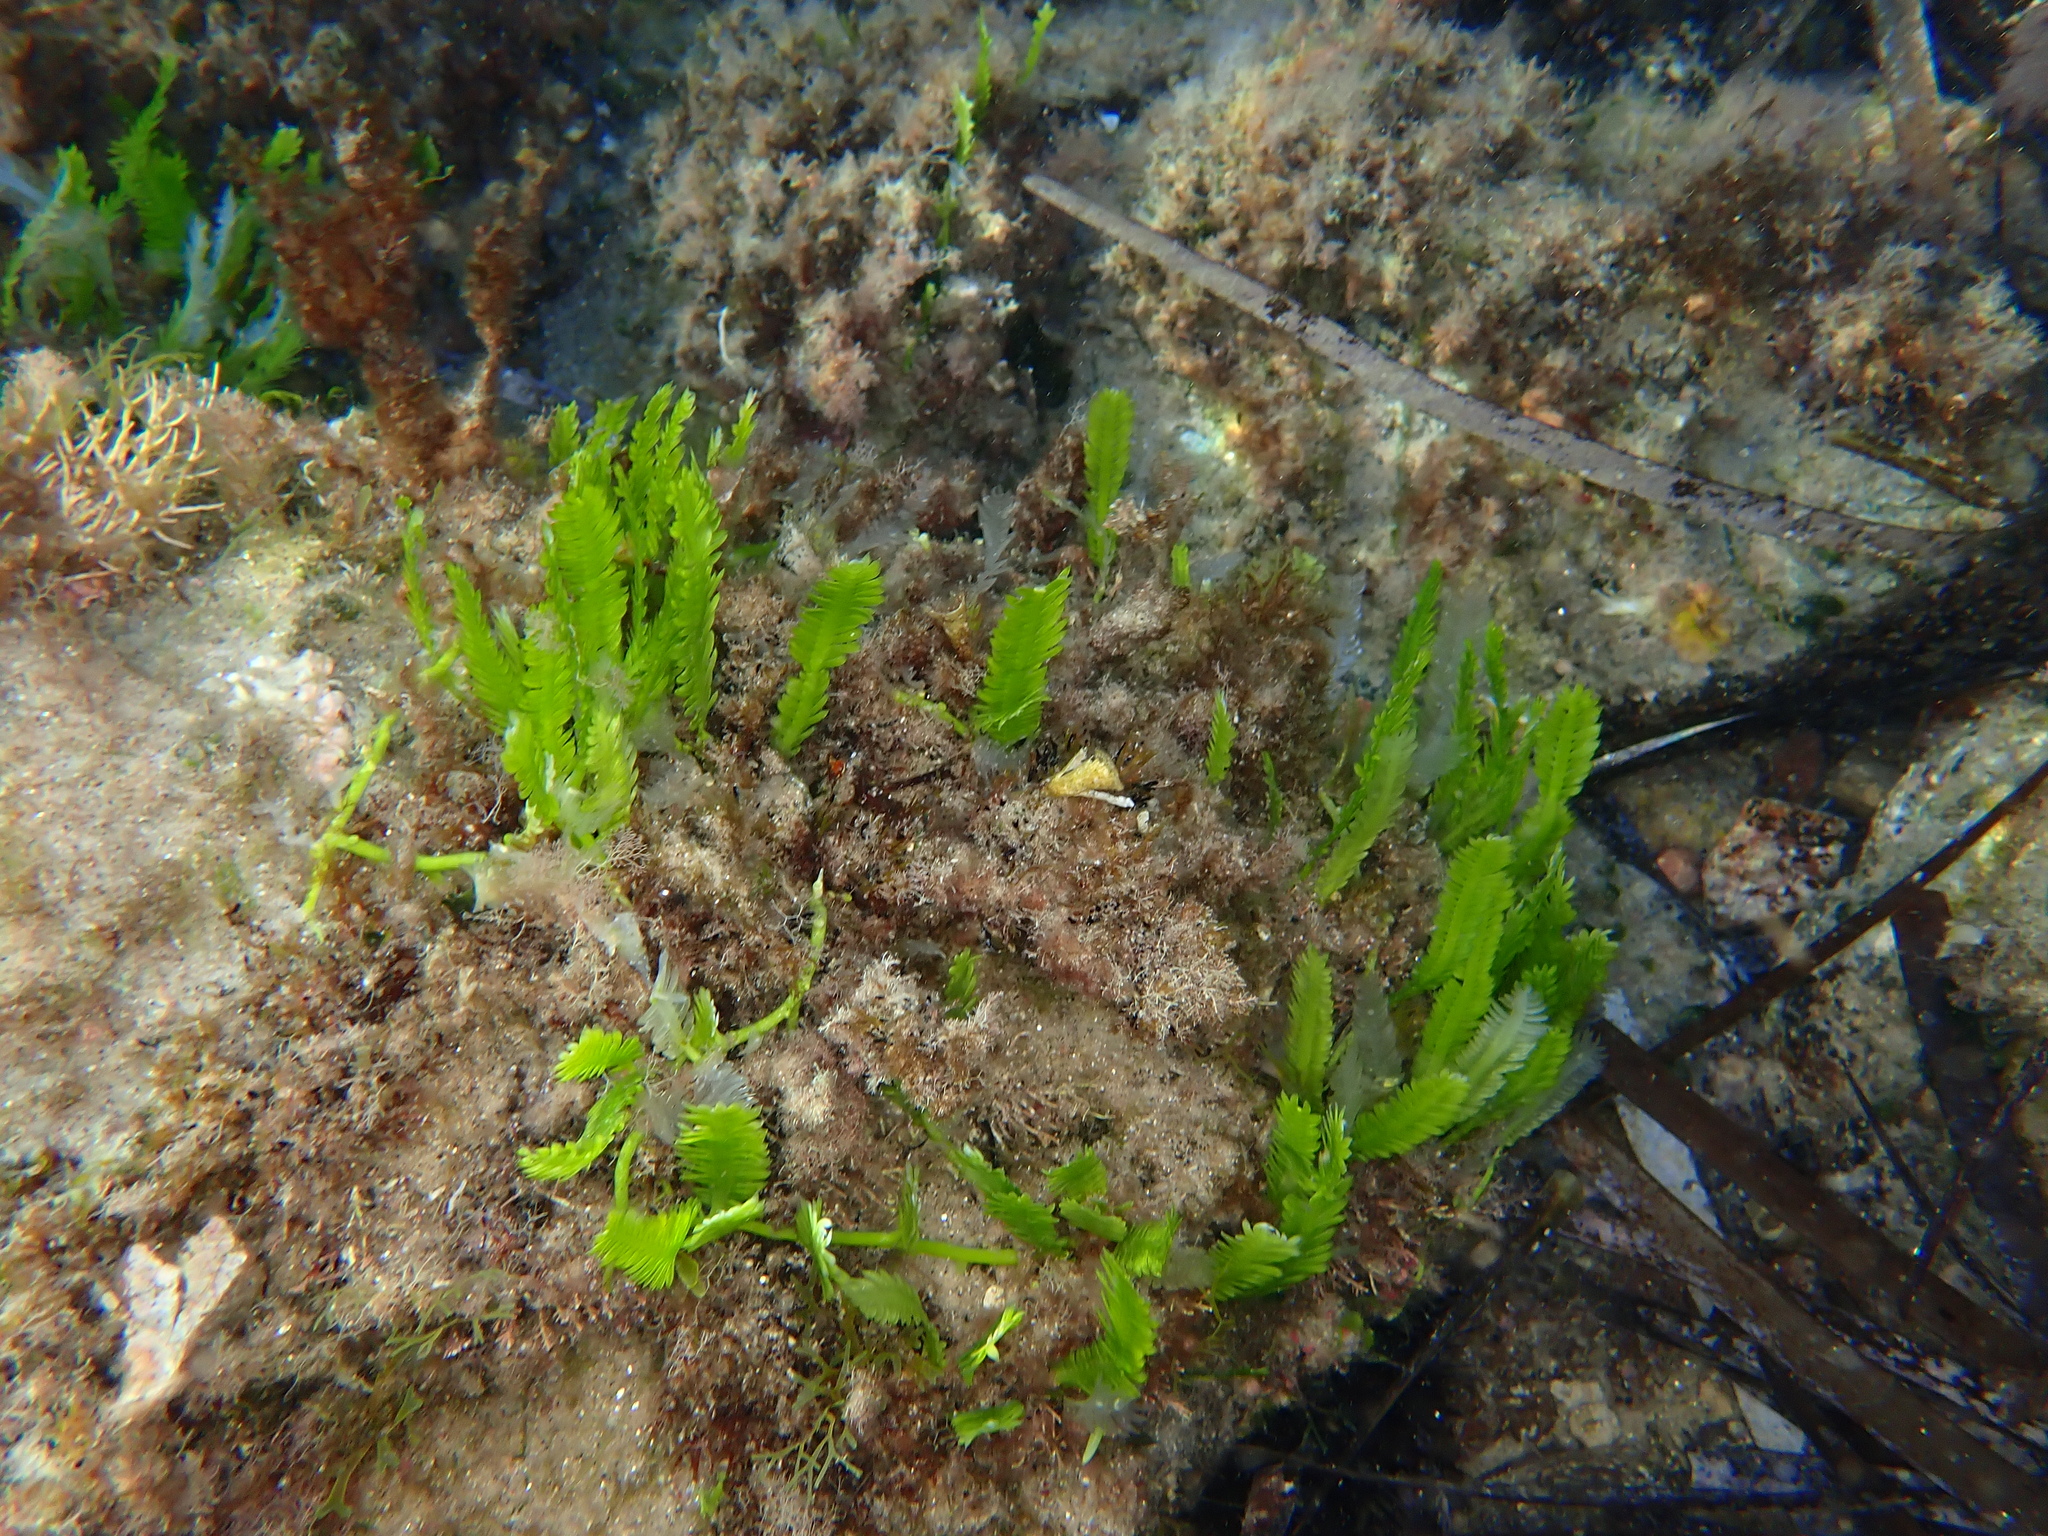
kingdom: Plantae
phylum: Chlorophyta
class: Ulvophyceae
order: Bryopsidales
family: Caulerpaceae
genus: Caulerpa
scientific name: Caulerpa taxifolia
